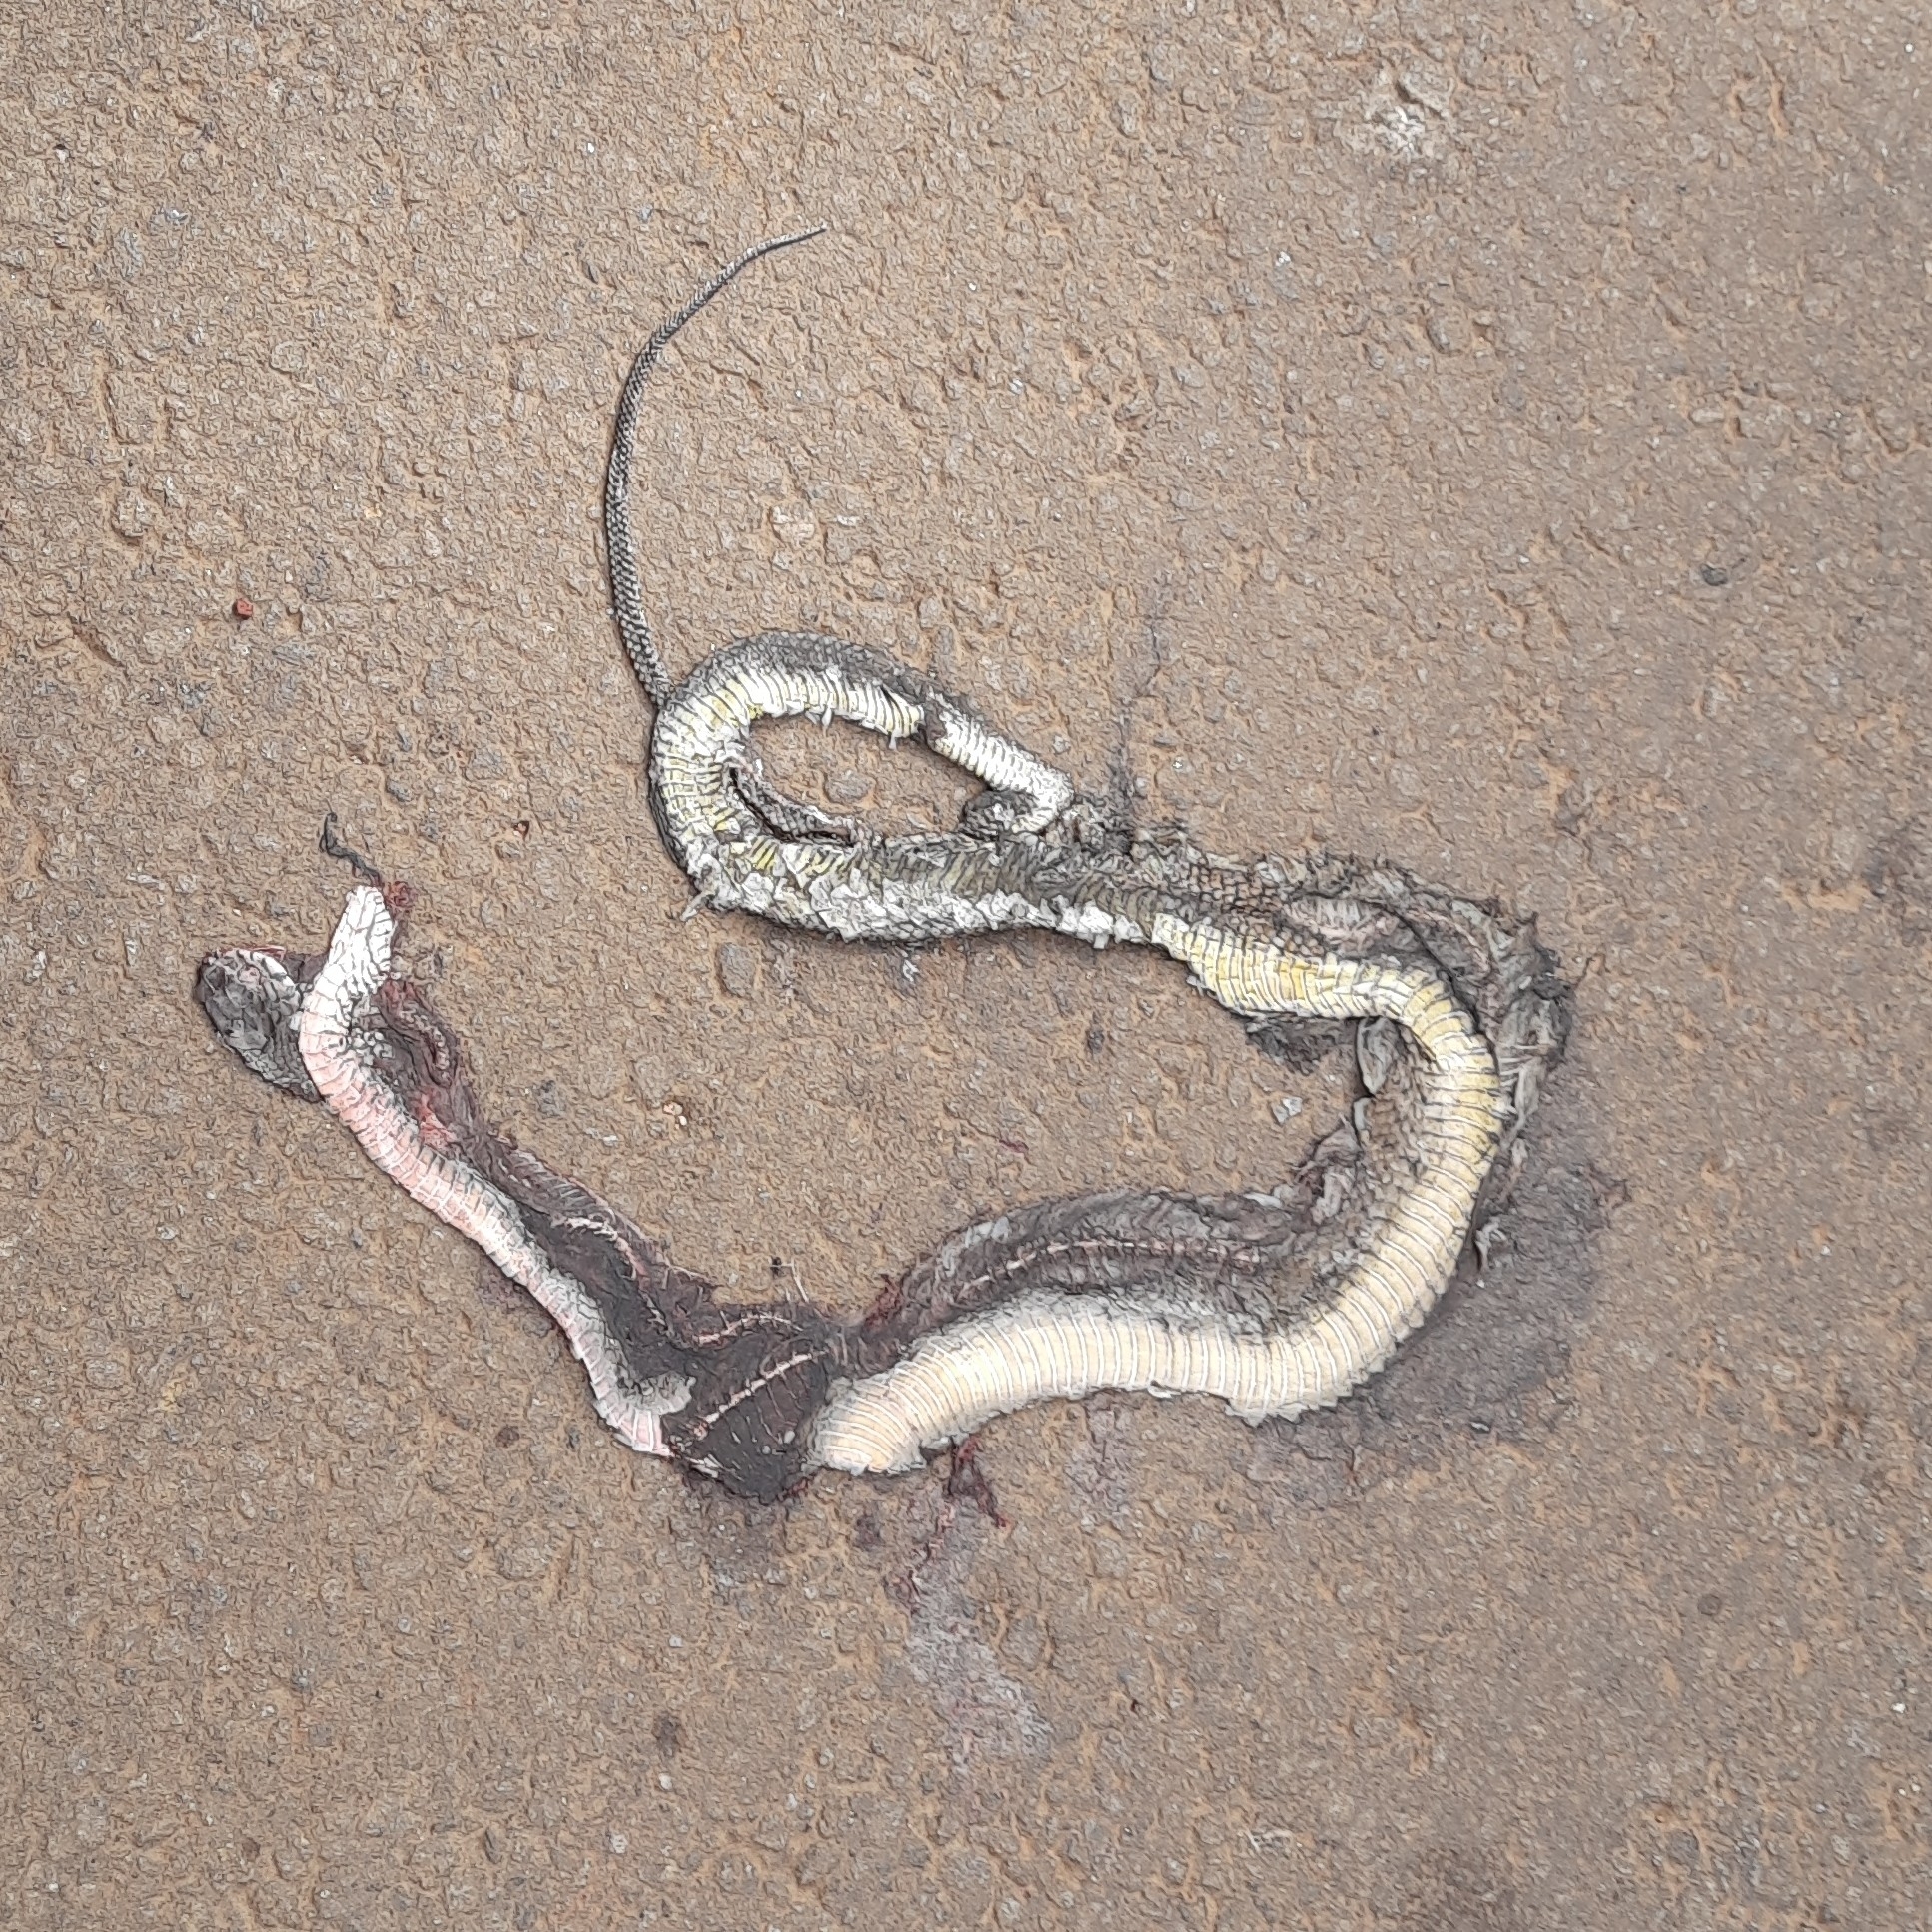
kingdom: Animalia
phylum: Chordata
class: Squamata
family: Colubridae
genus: Ptyas
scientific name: Ptyas mucosa
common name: Oriental ratsnake
